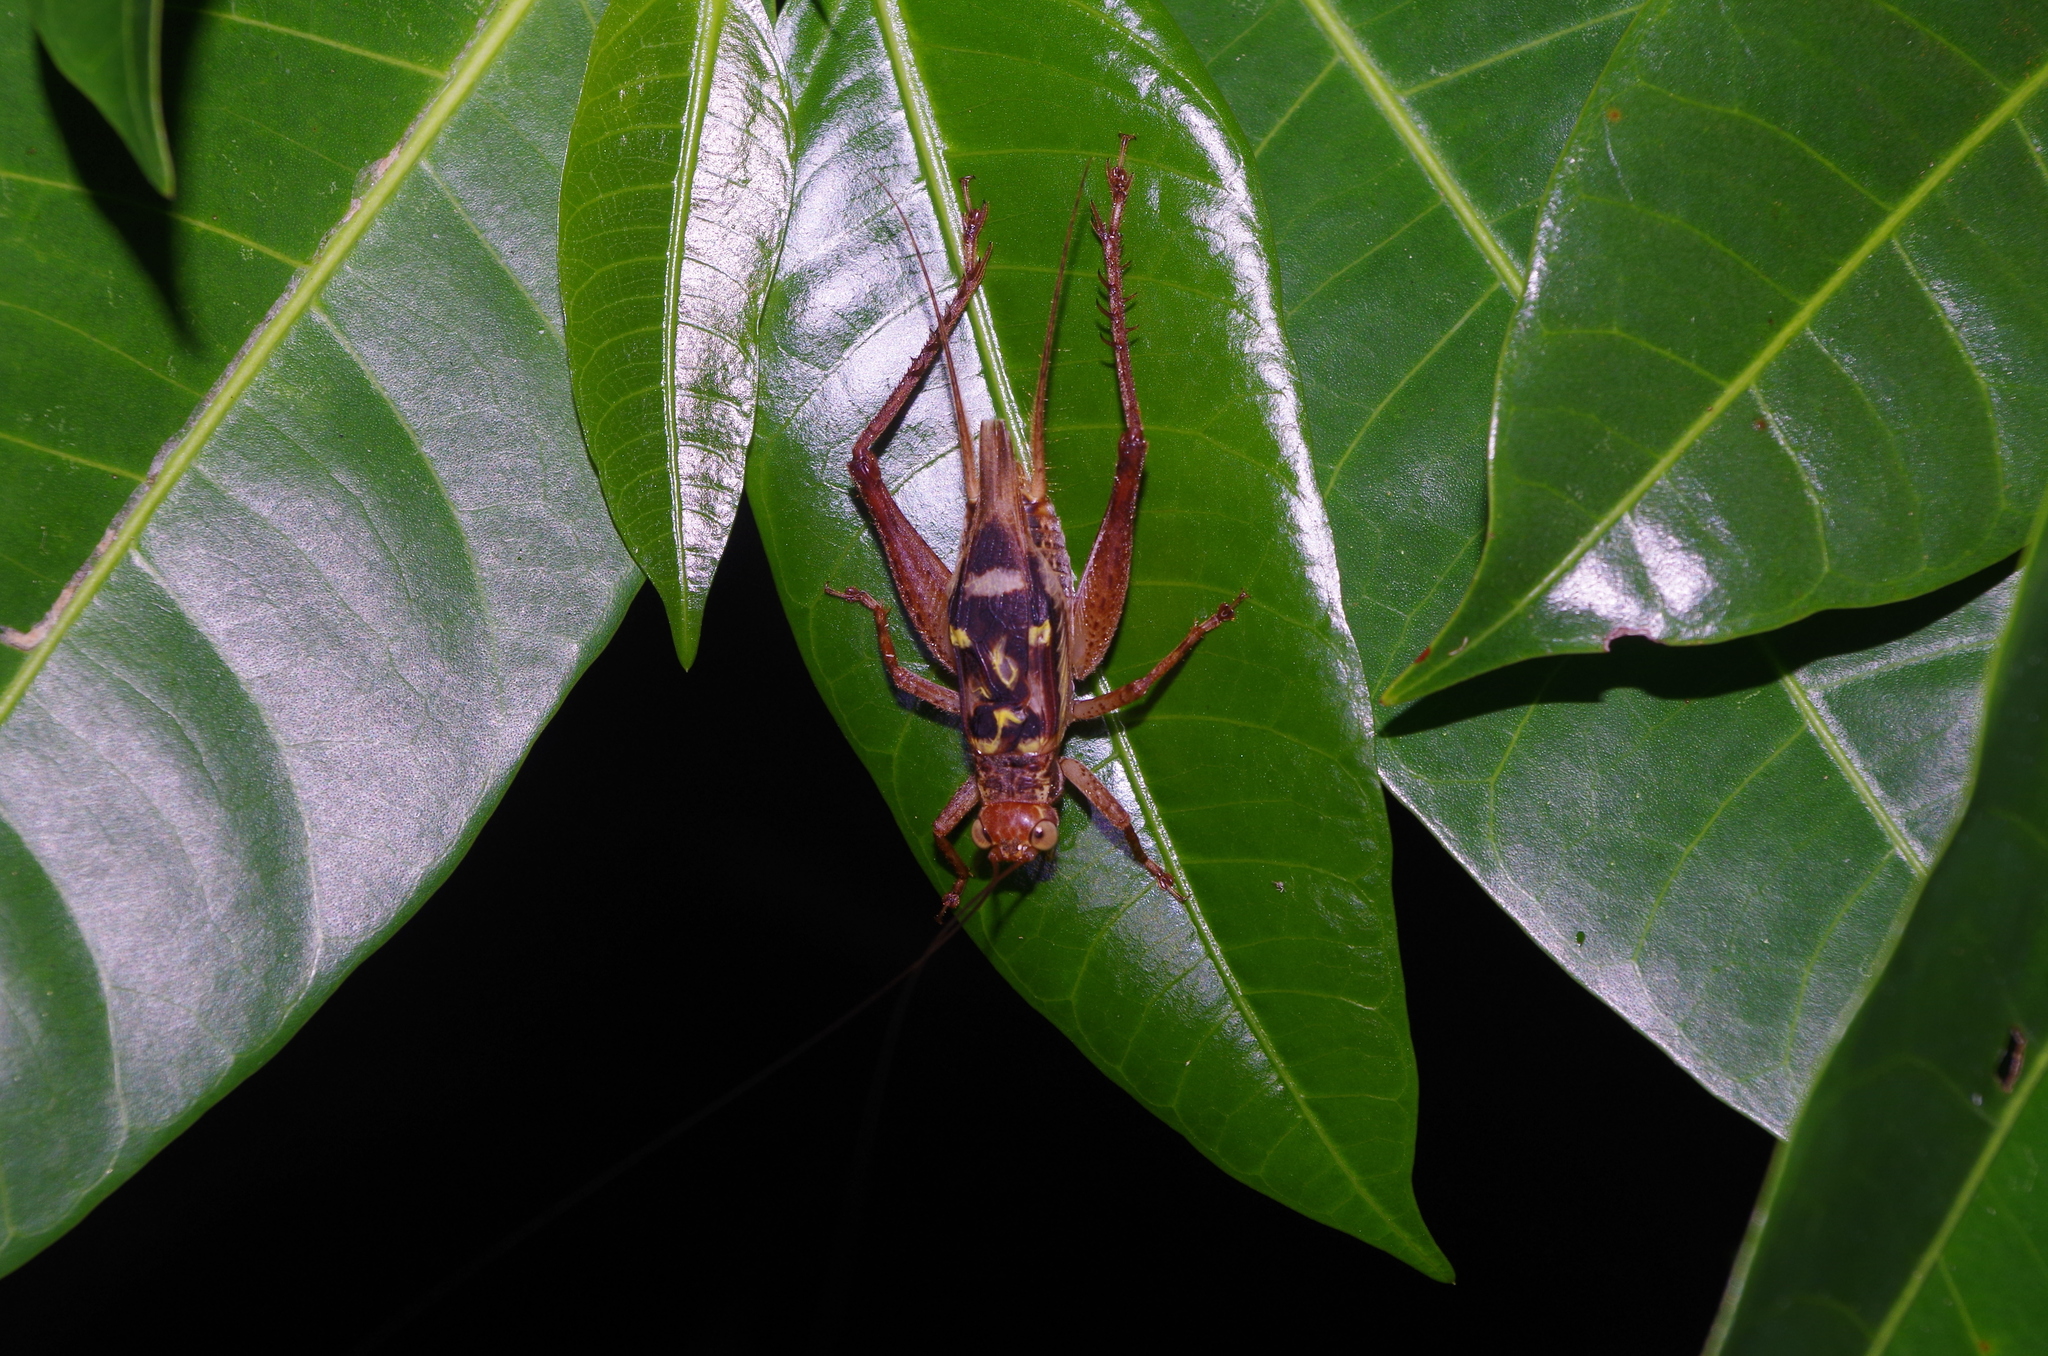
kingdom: Animalia
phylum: Arthropoda
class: Insecta
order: Orthoptera
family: Gryllidae
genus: Cardiodactylus
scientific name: Cardiodactylus guttulus
